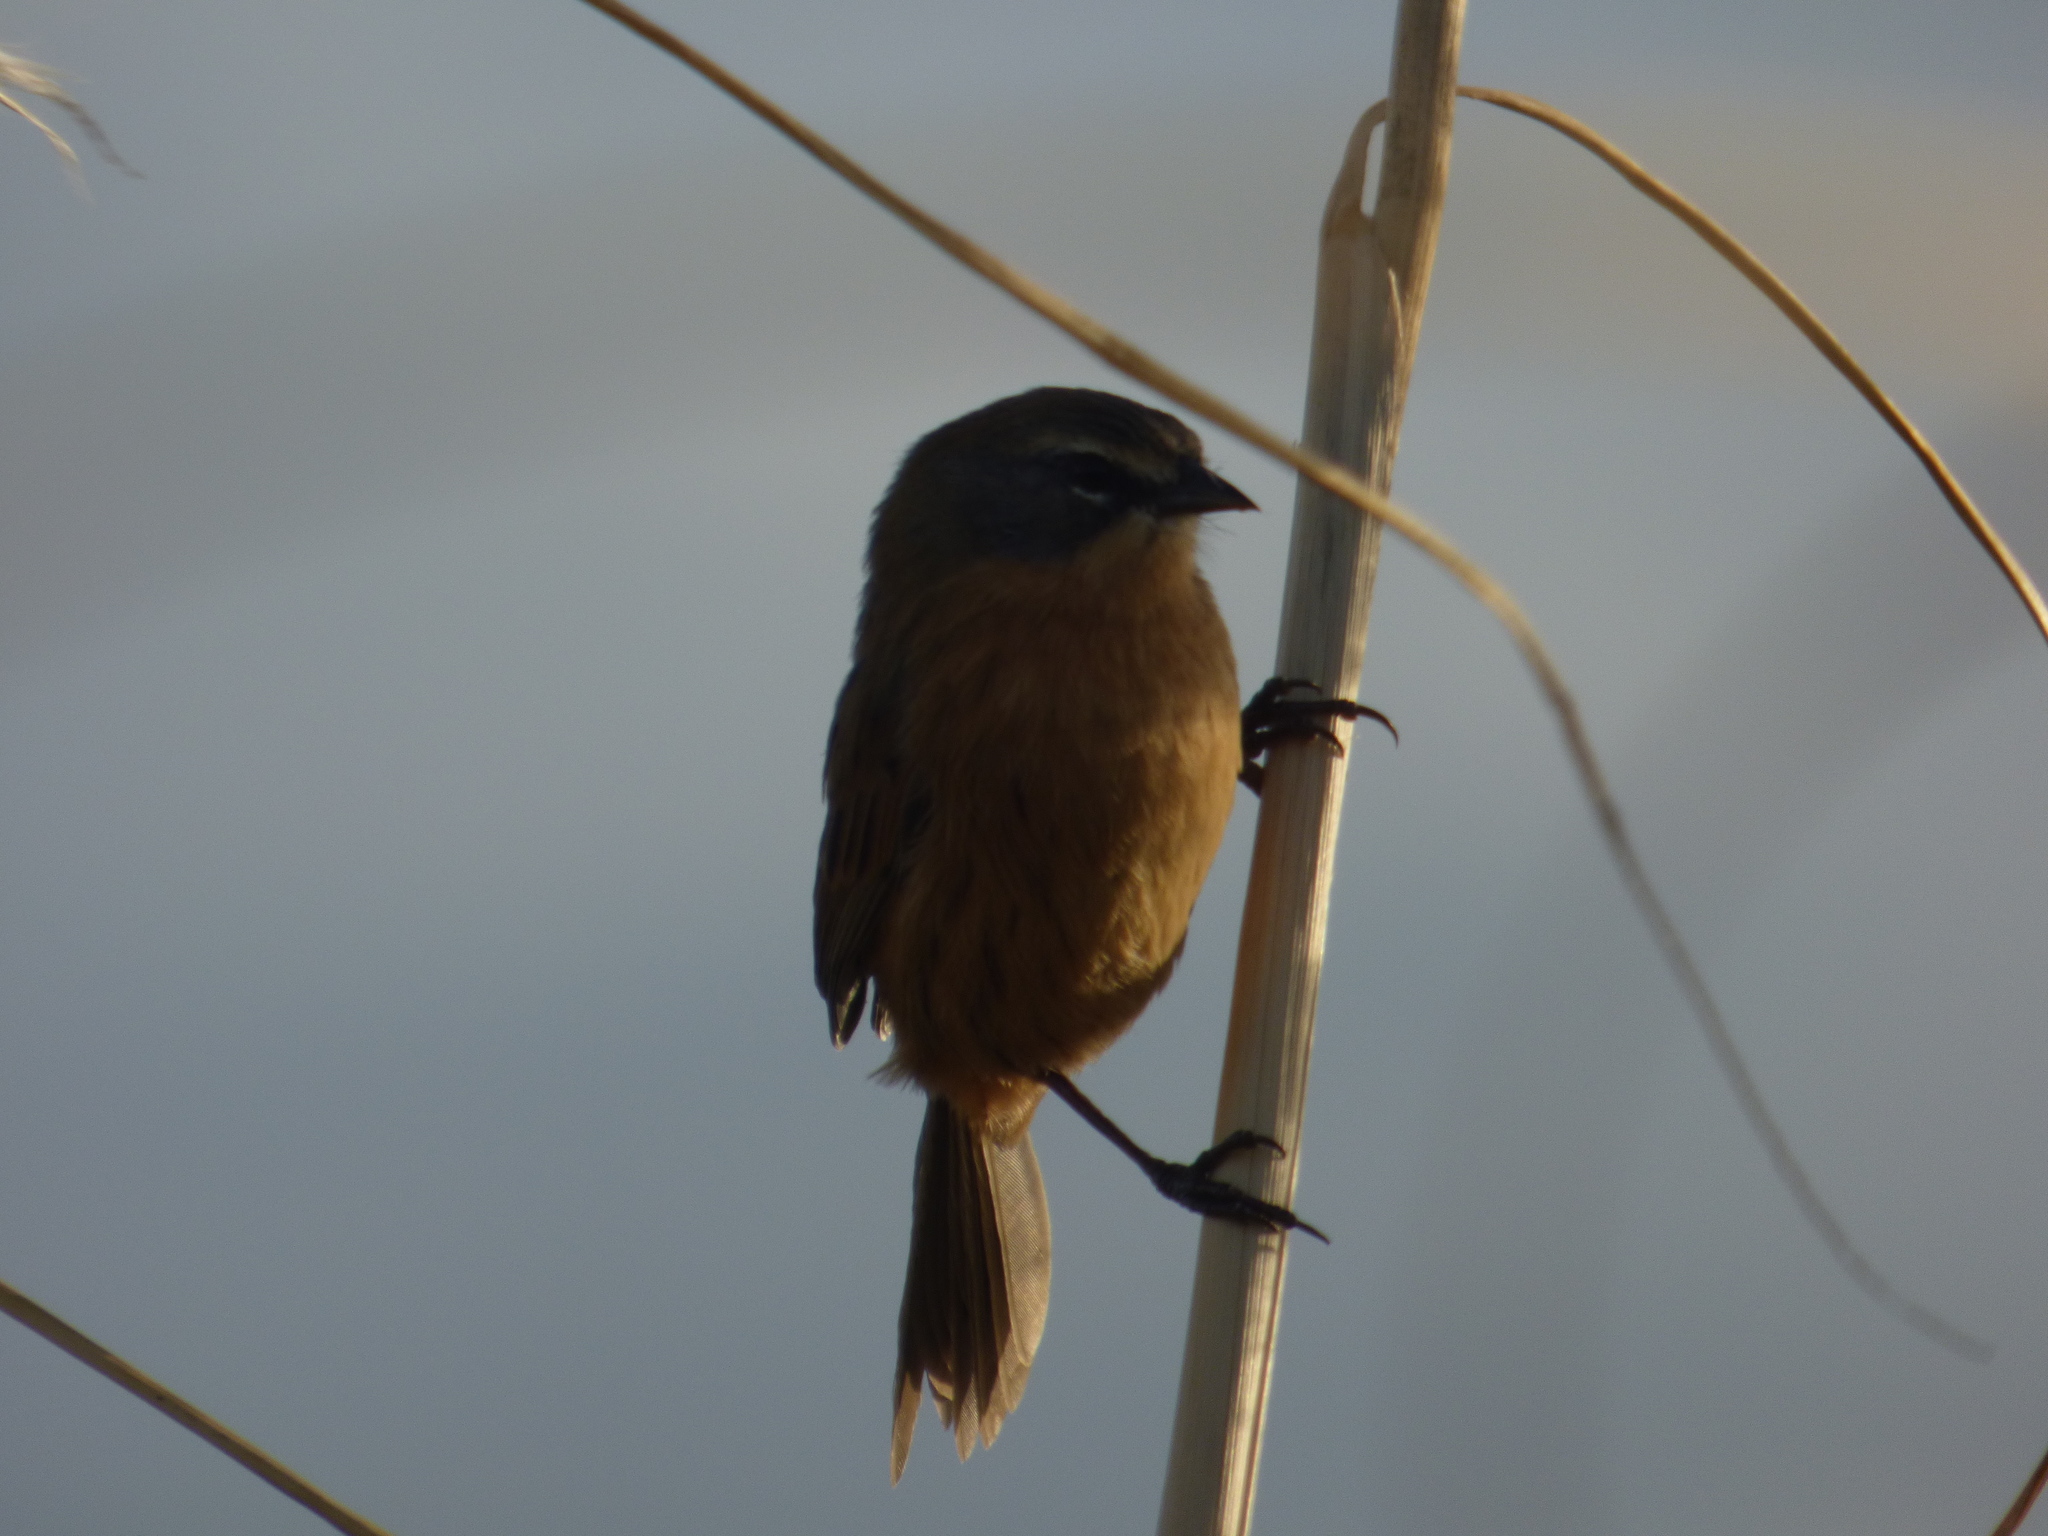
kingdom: Animalia
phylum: Chordata
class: Aves
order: Passeriformes
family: Thraupidae
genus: Donacospiza
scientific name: Donacospiza albifrons
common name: Long-tailed reed finch
